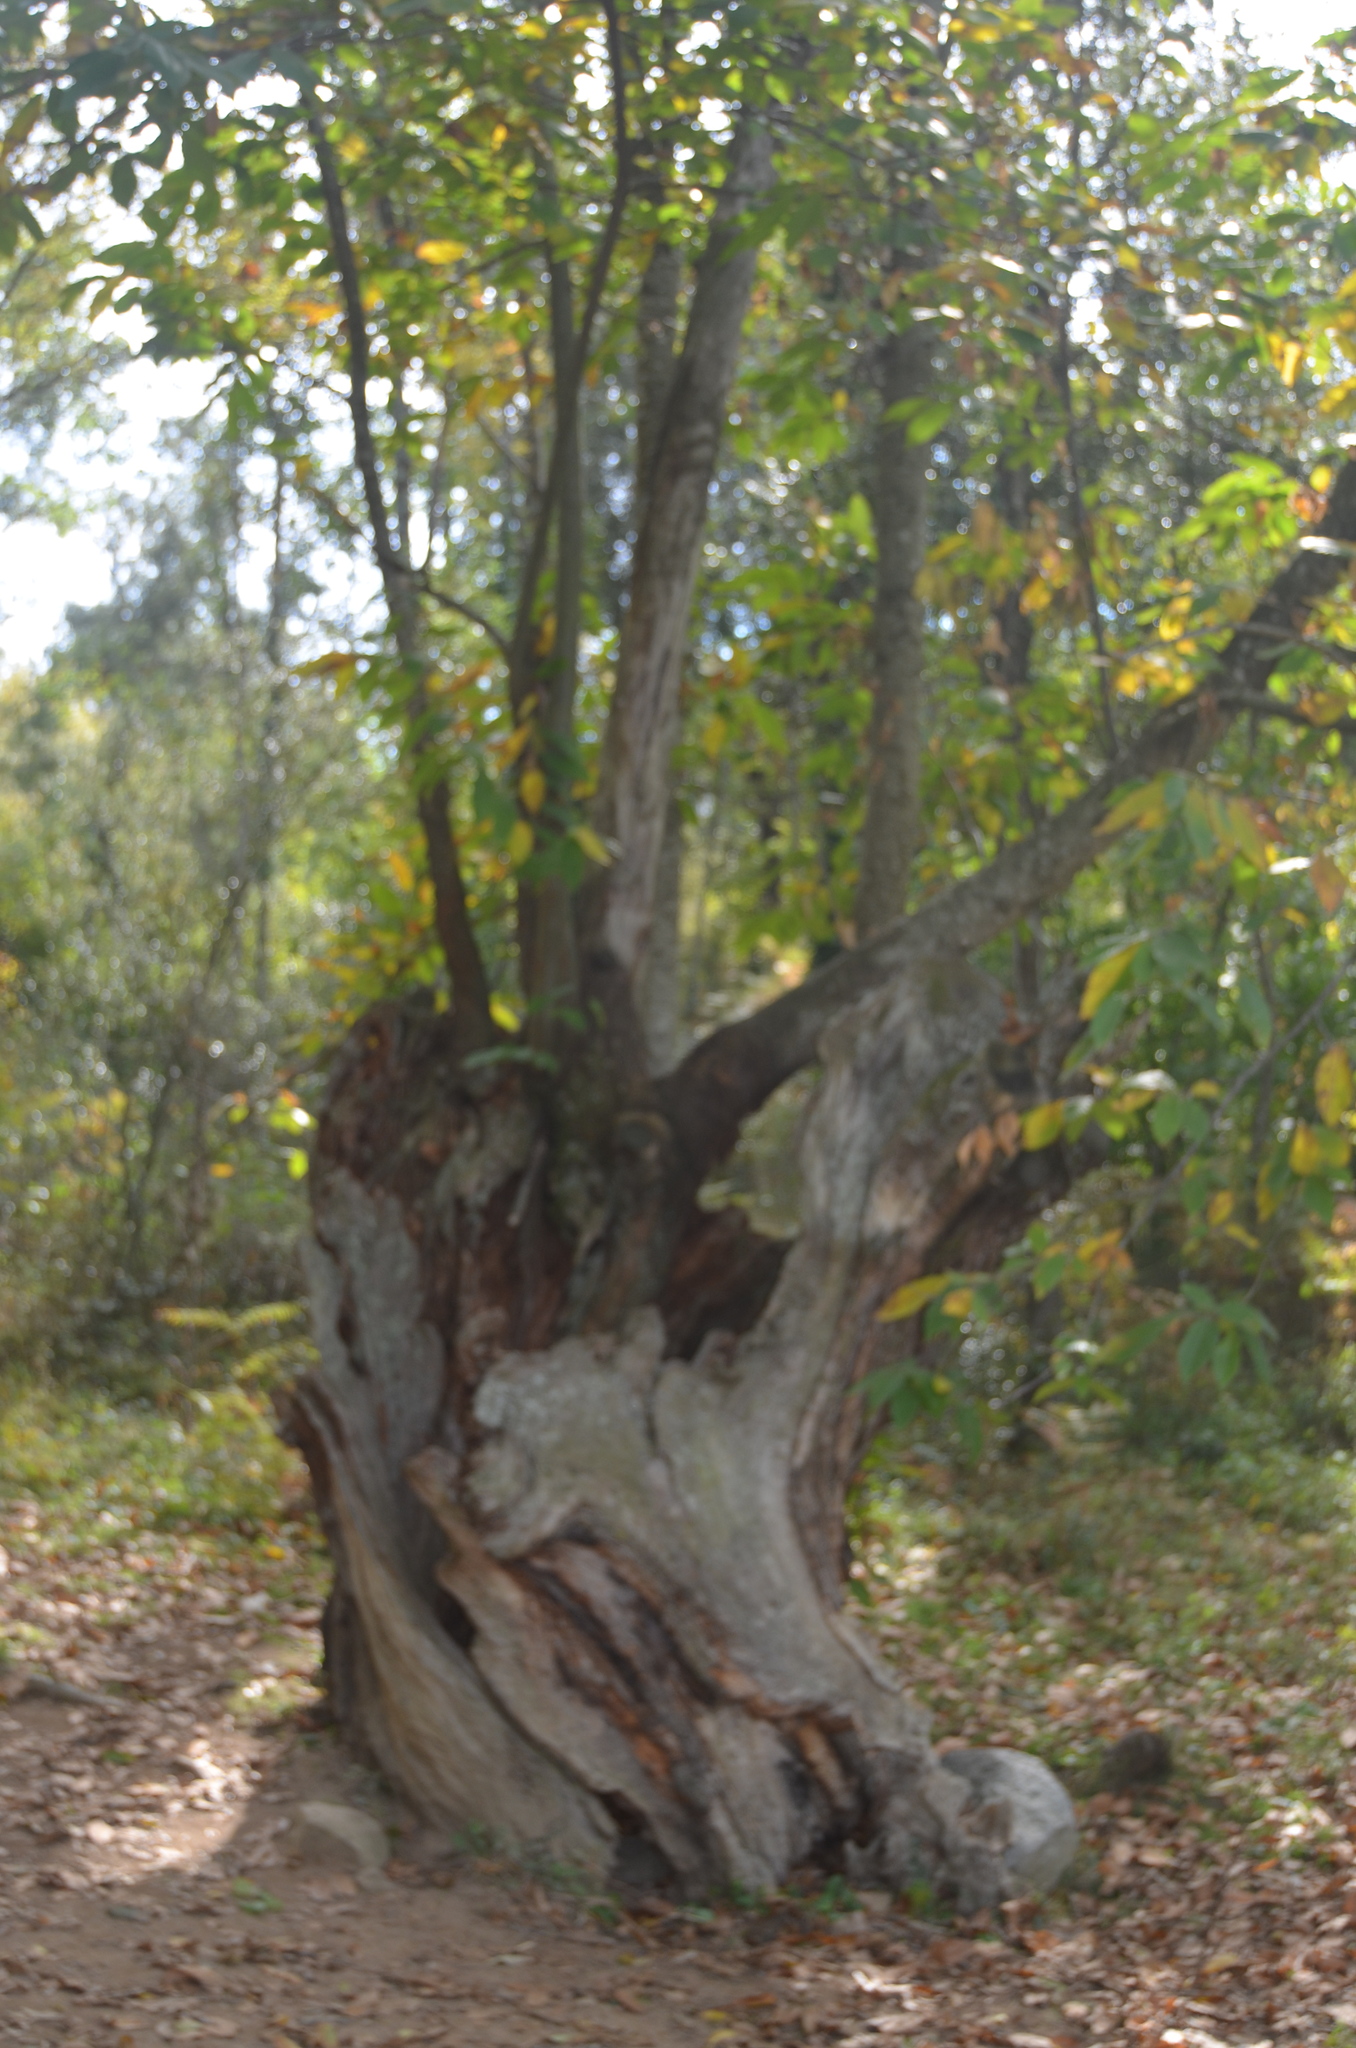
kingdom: Plantae
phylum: Tracheophyta
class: Magnoliopsida
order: Fagales
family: Fagaceae
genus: Castanea
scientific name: Castanea sativa
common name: Sweet chestnut
